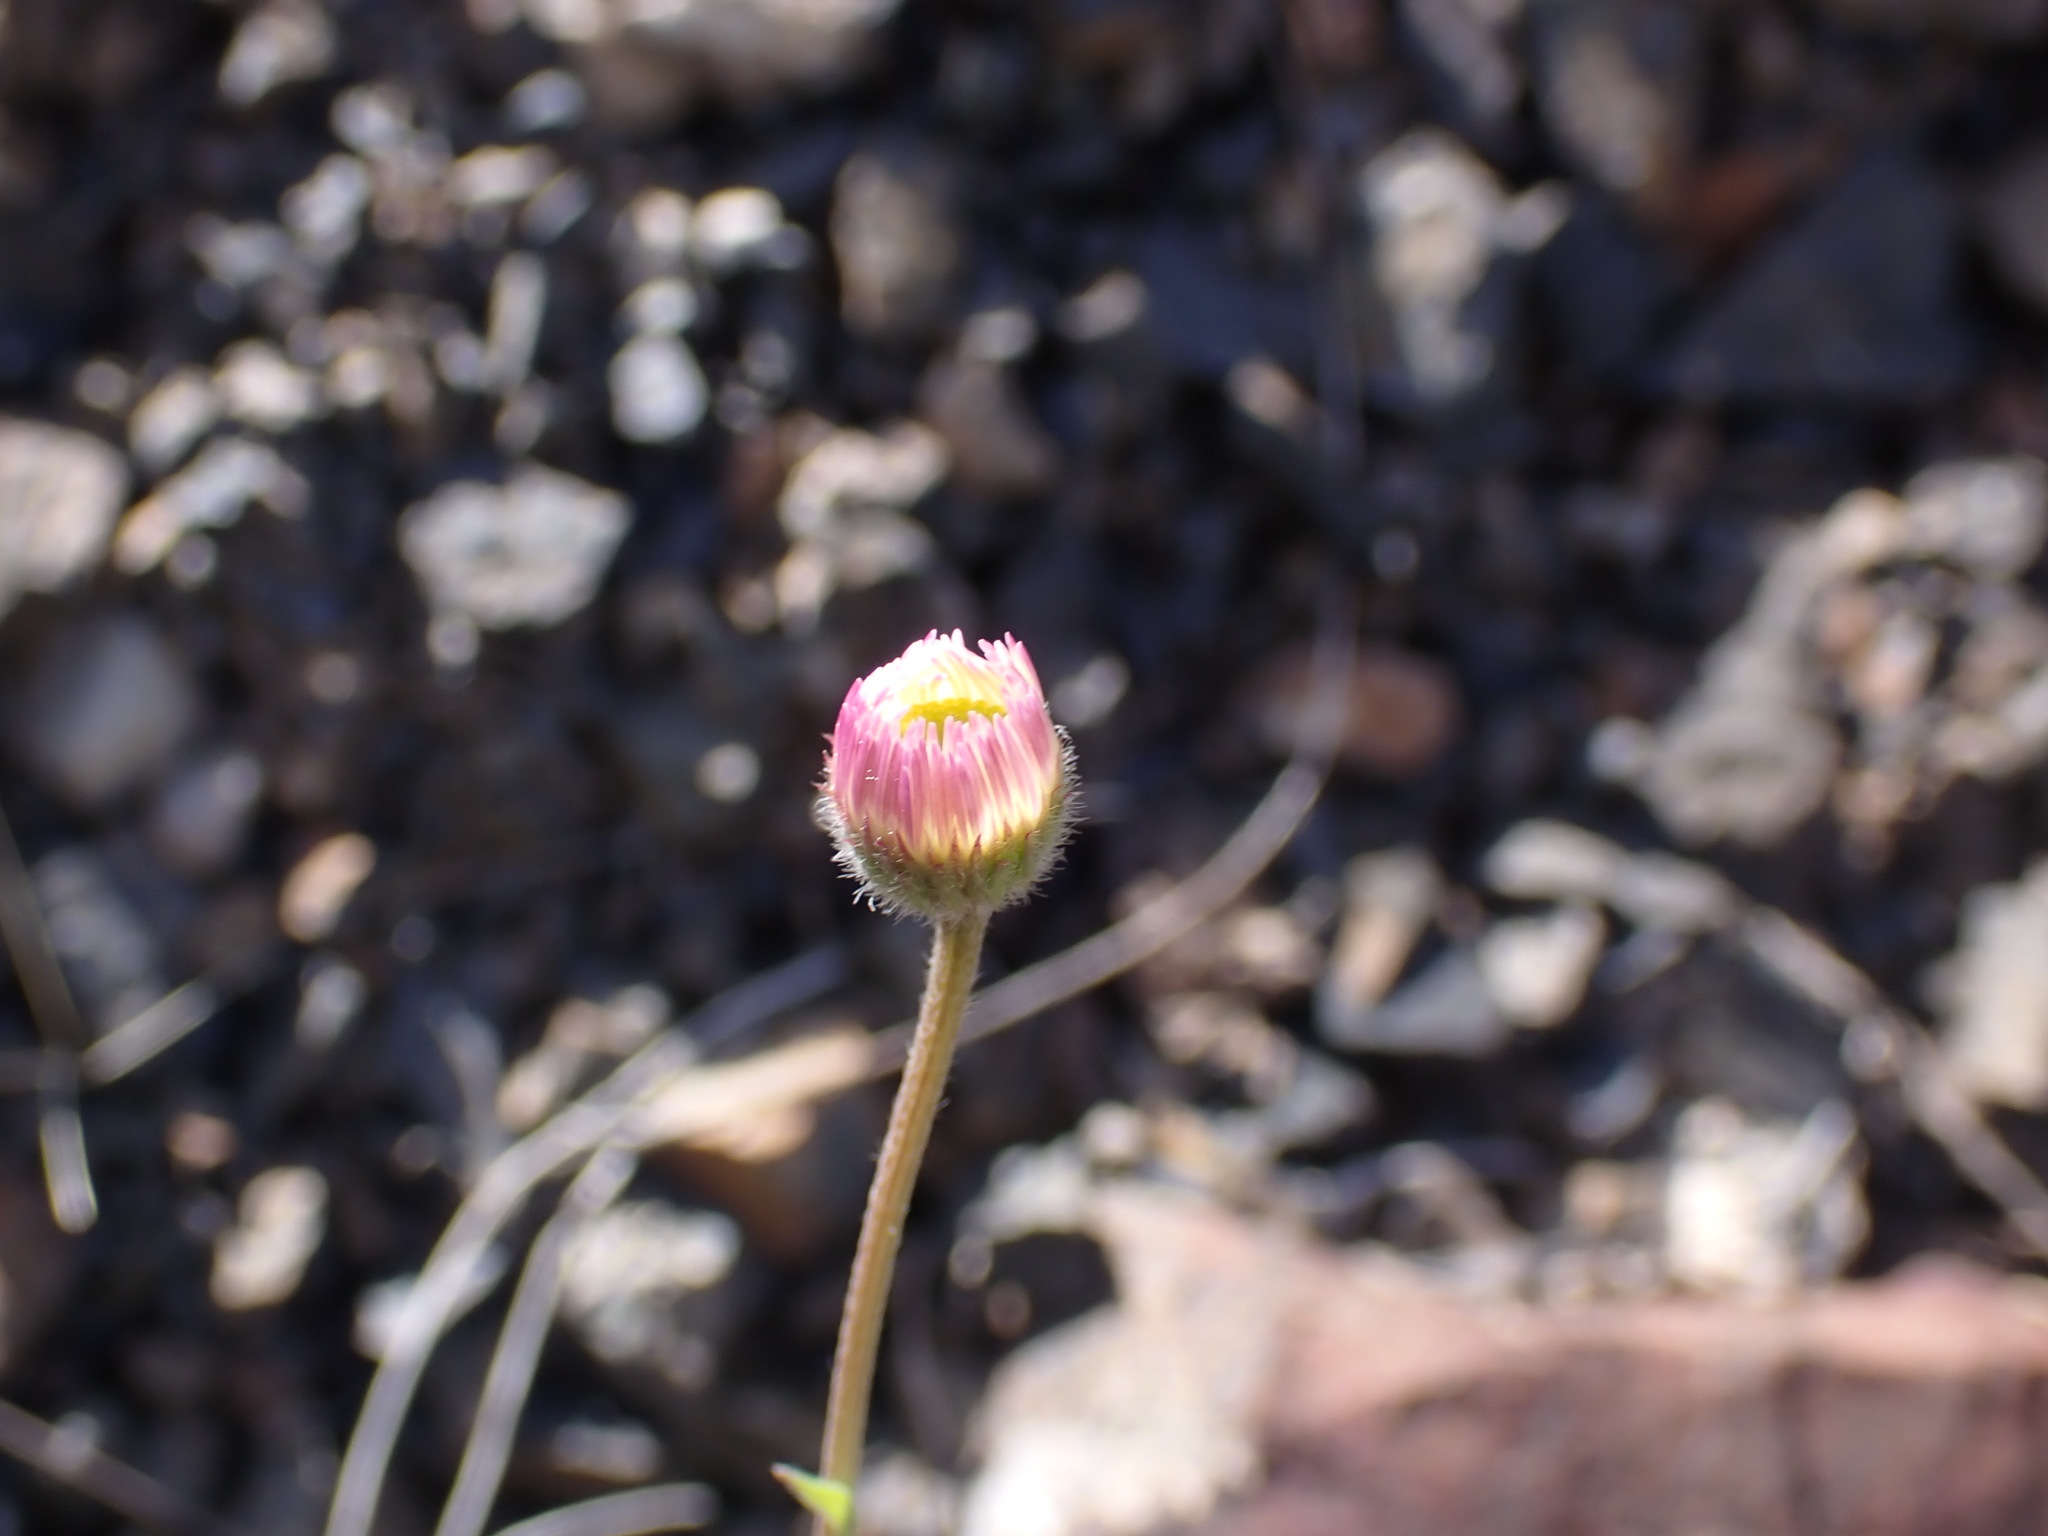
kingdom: Plantae
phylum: Tracheophyta
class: Magnoliopsida
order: Asterales
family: Asteraceae
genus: Erigeron
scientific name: Erigeron flagellaris
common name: Running fleabane
